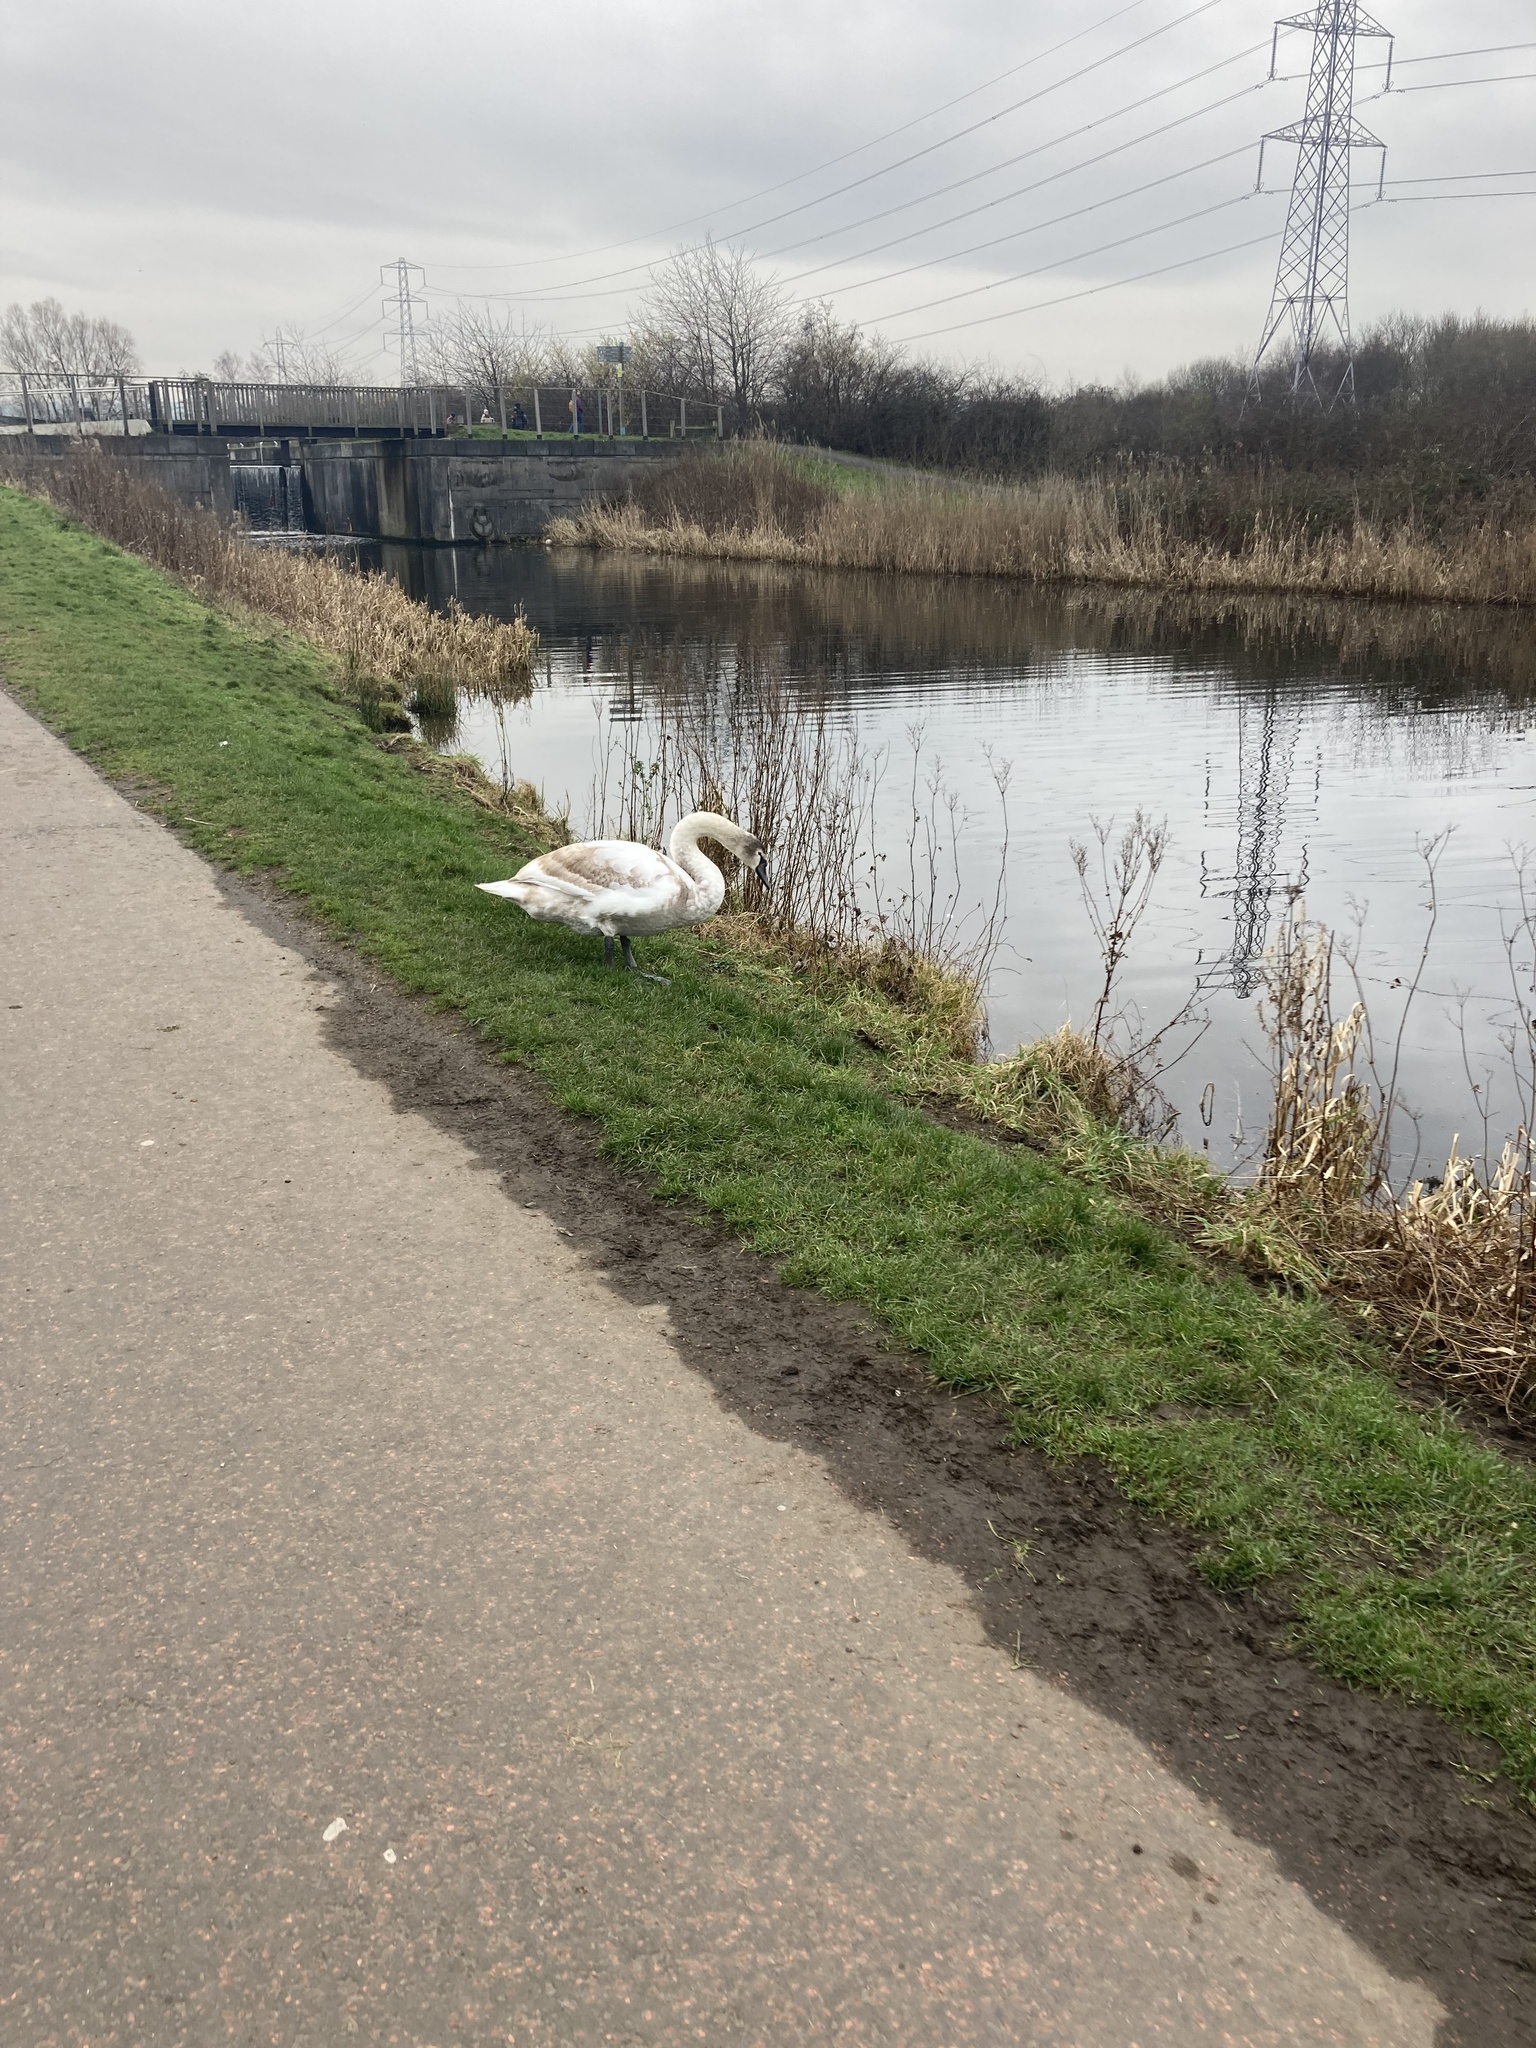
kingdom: Animalia
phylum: Chordata
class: Aves
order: Anseriformes
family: Anatidae
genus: Cygnus
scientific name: Cygnus olor
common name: Mute swan
